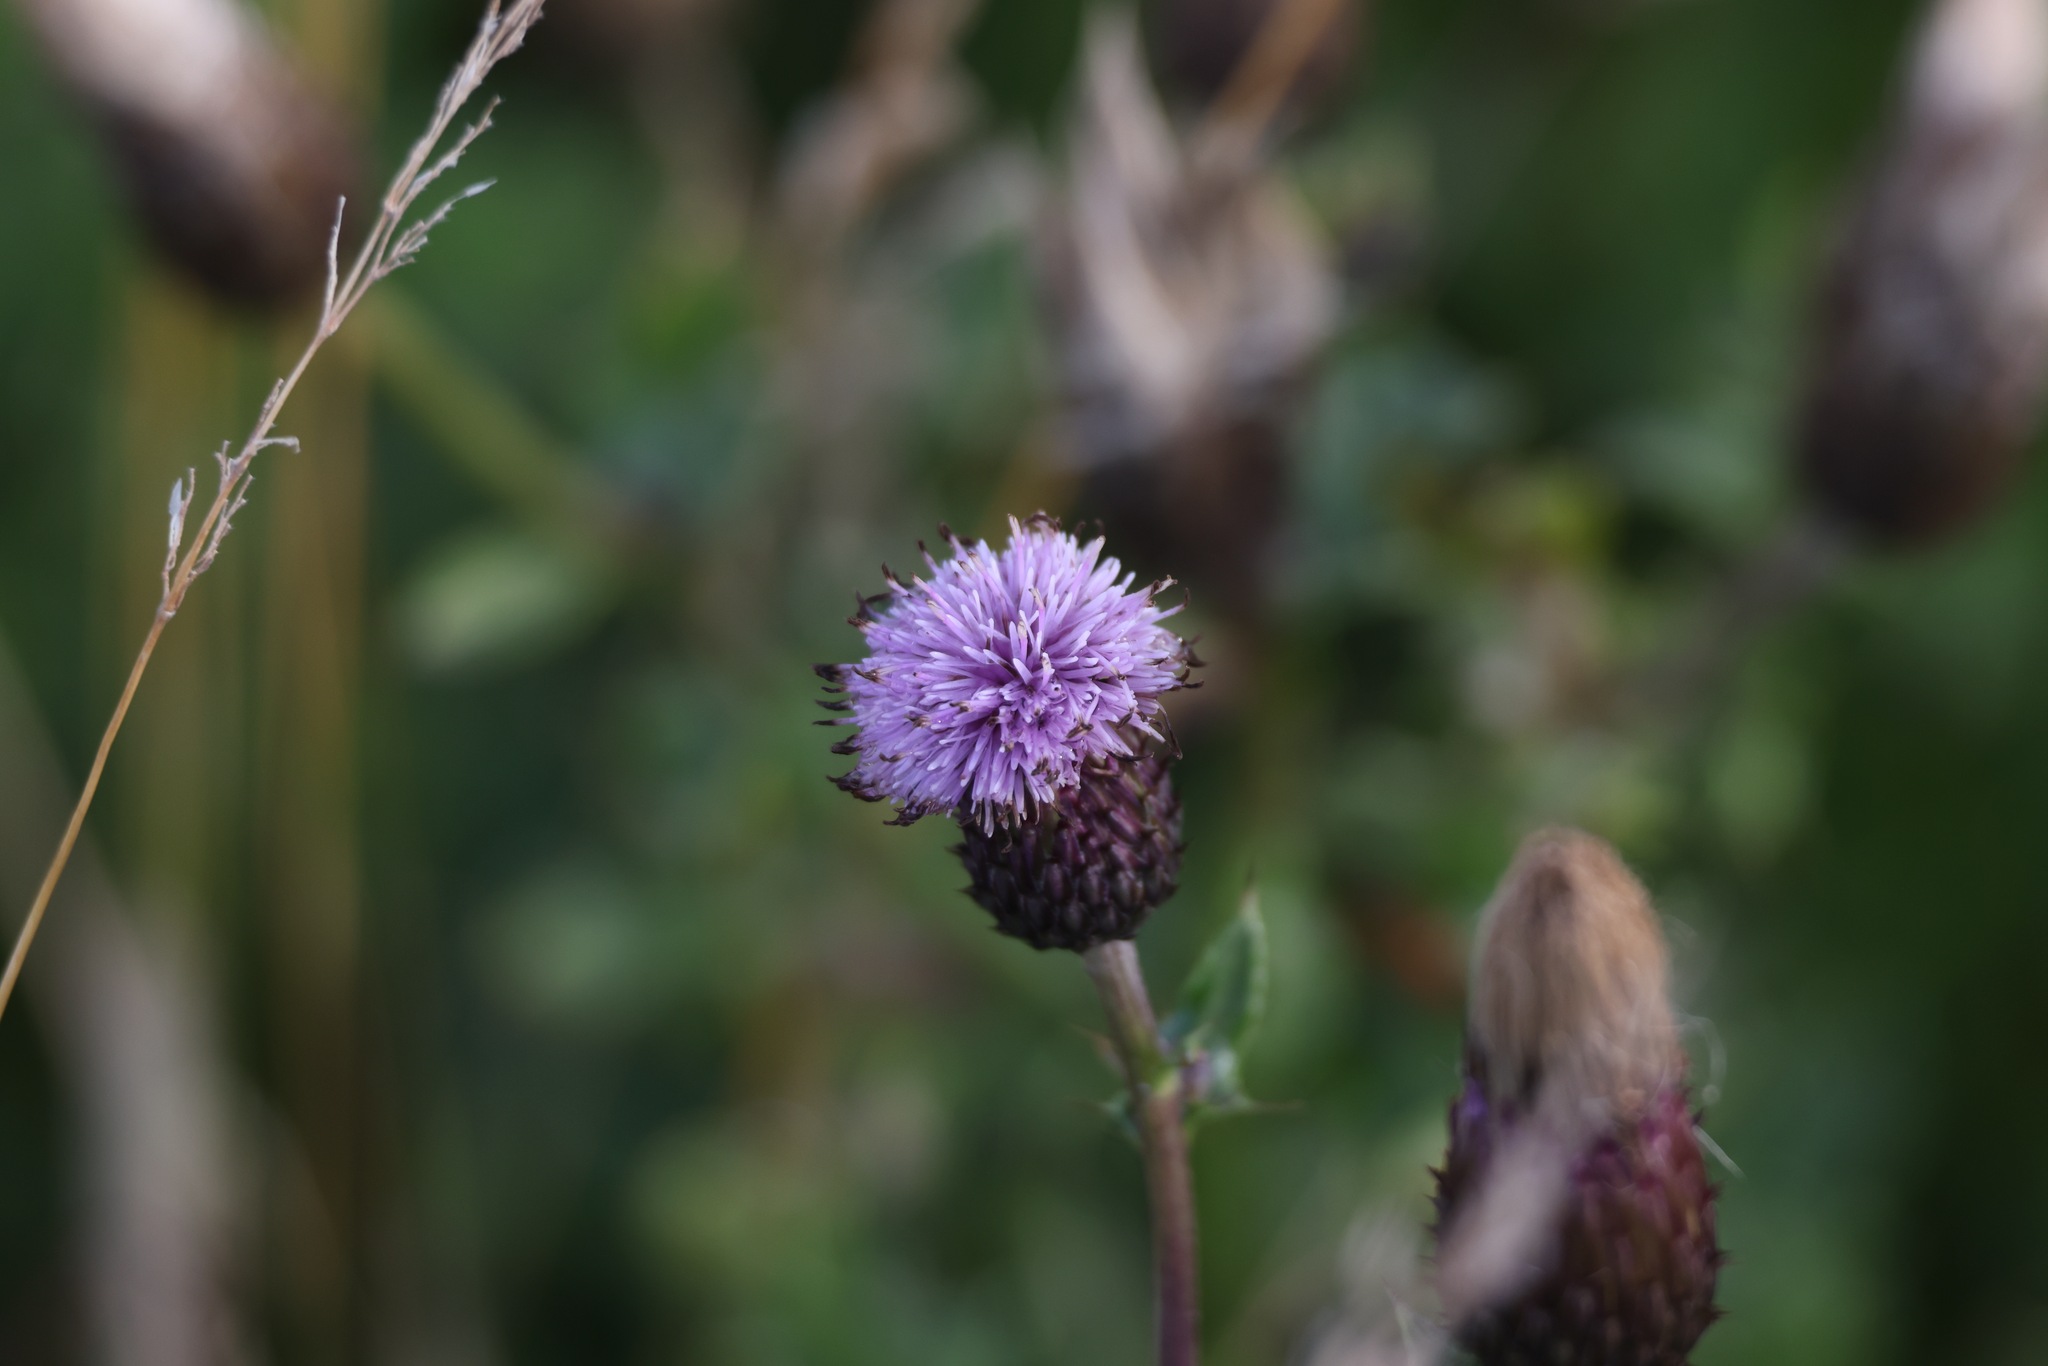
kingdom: Plantae
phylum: Tracheophyta
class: Magnoliopsida
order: Asterales
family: Asteraceae
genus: Cirsium
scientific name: Cirsium arvense
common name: Creeping thistle
